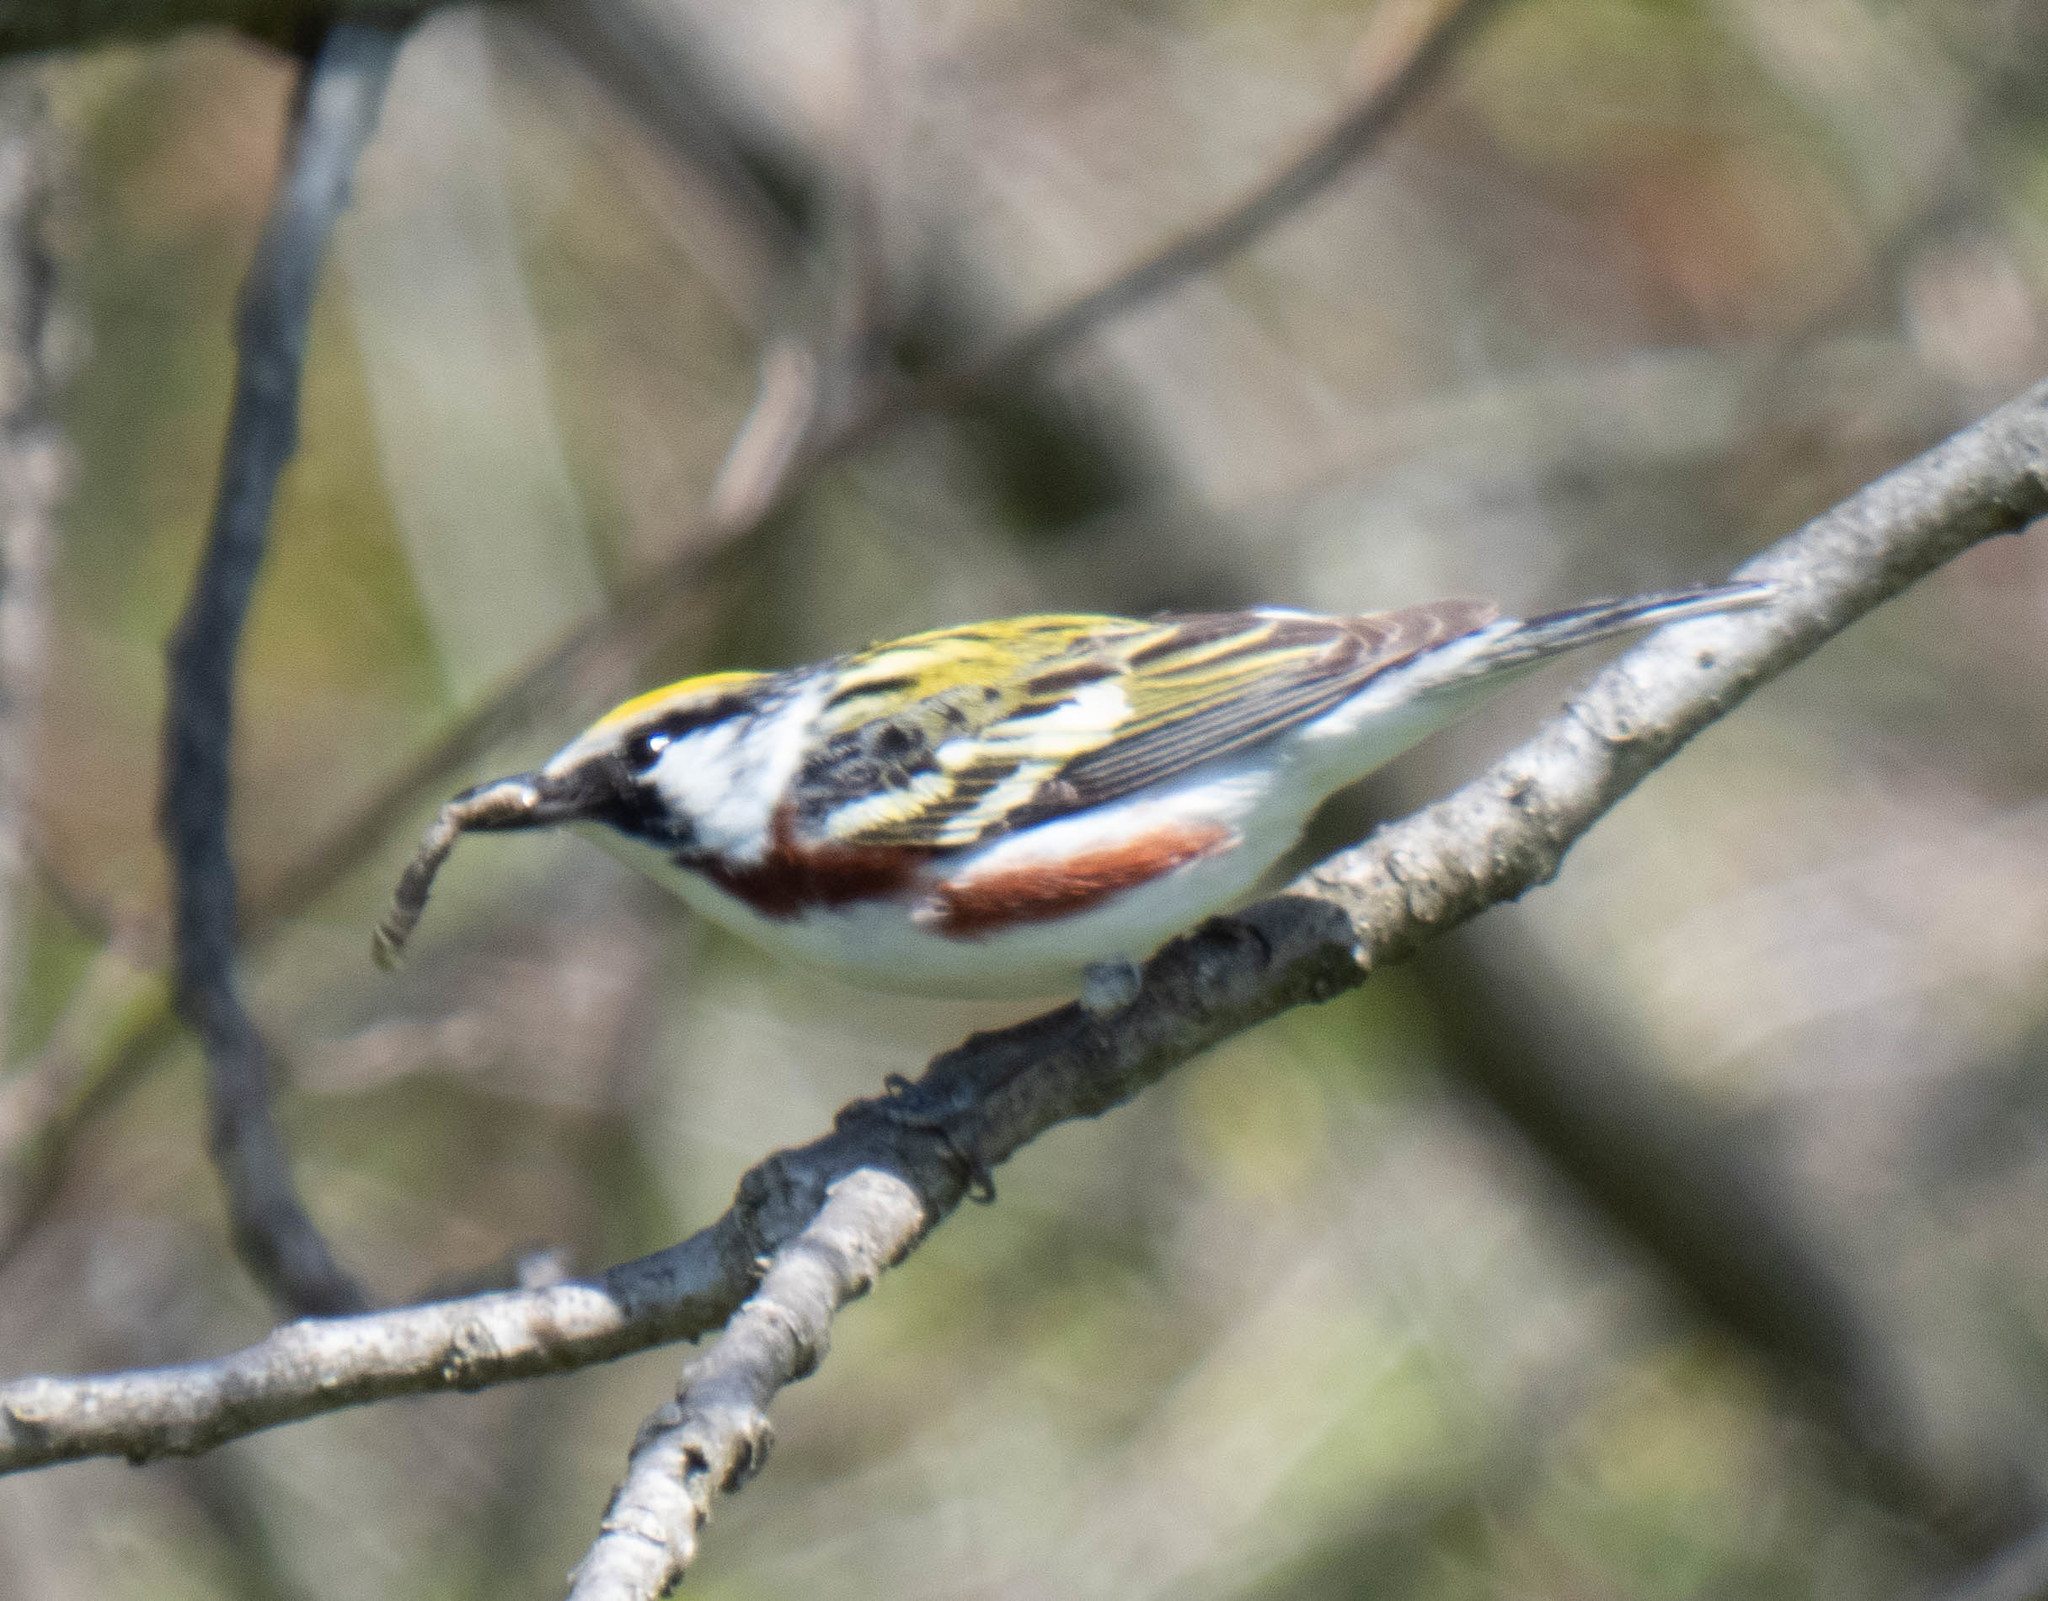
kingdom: Animalia
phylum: Chordata
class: Aves
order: Passeriformes
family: Parulidae
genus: Setophaga
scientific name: Setophaga pensylvanica
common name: Chestnut-sided warbler
